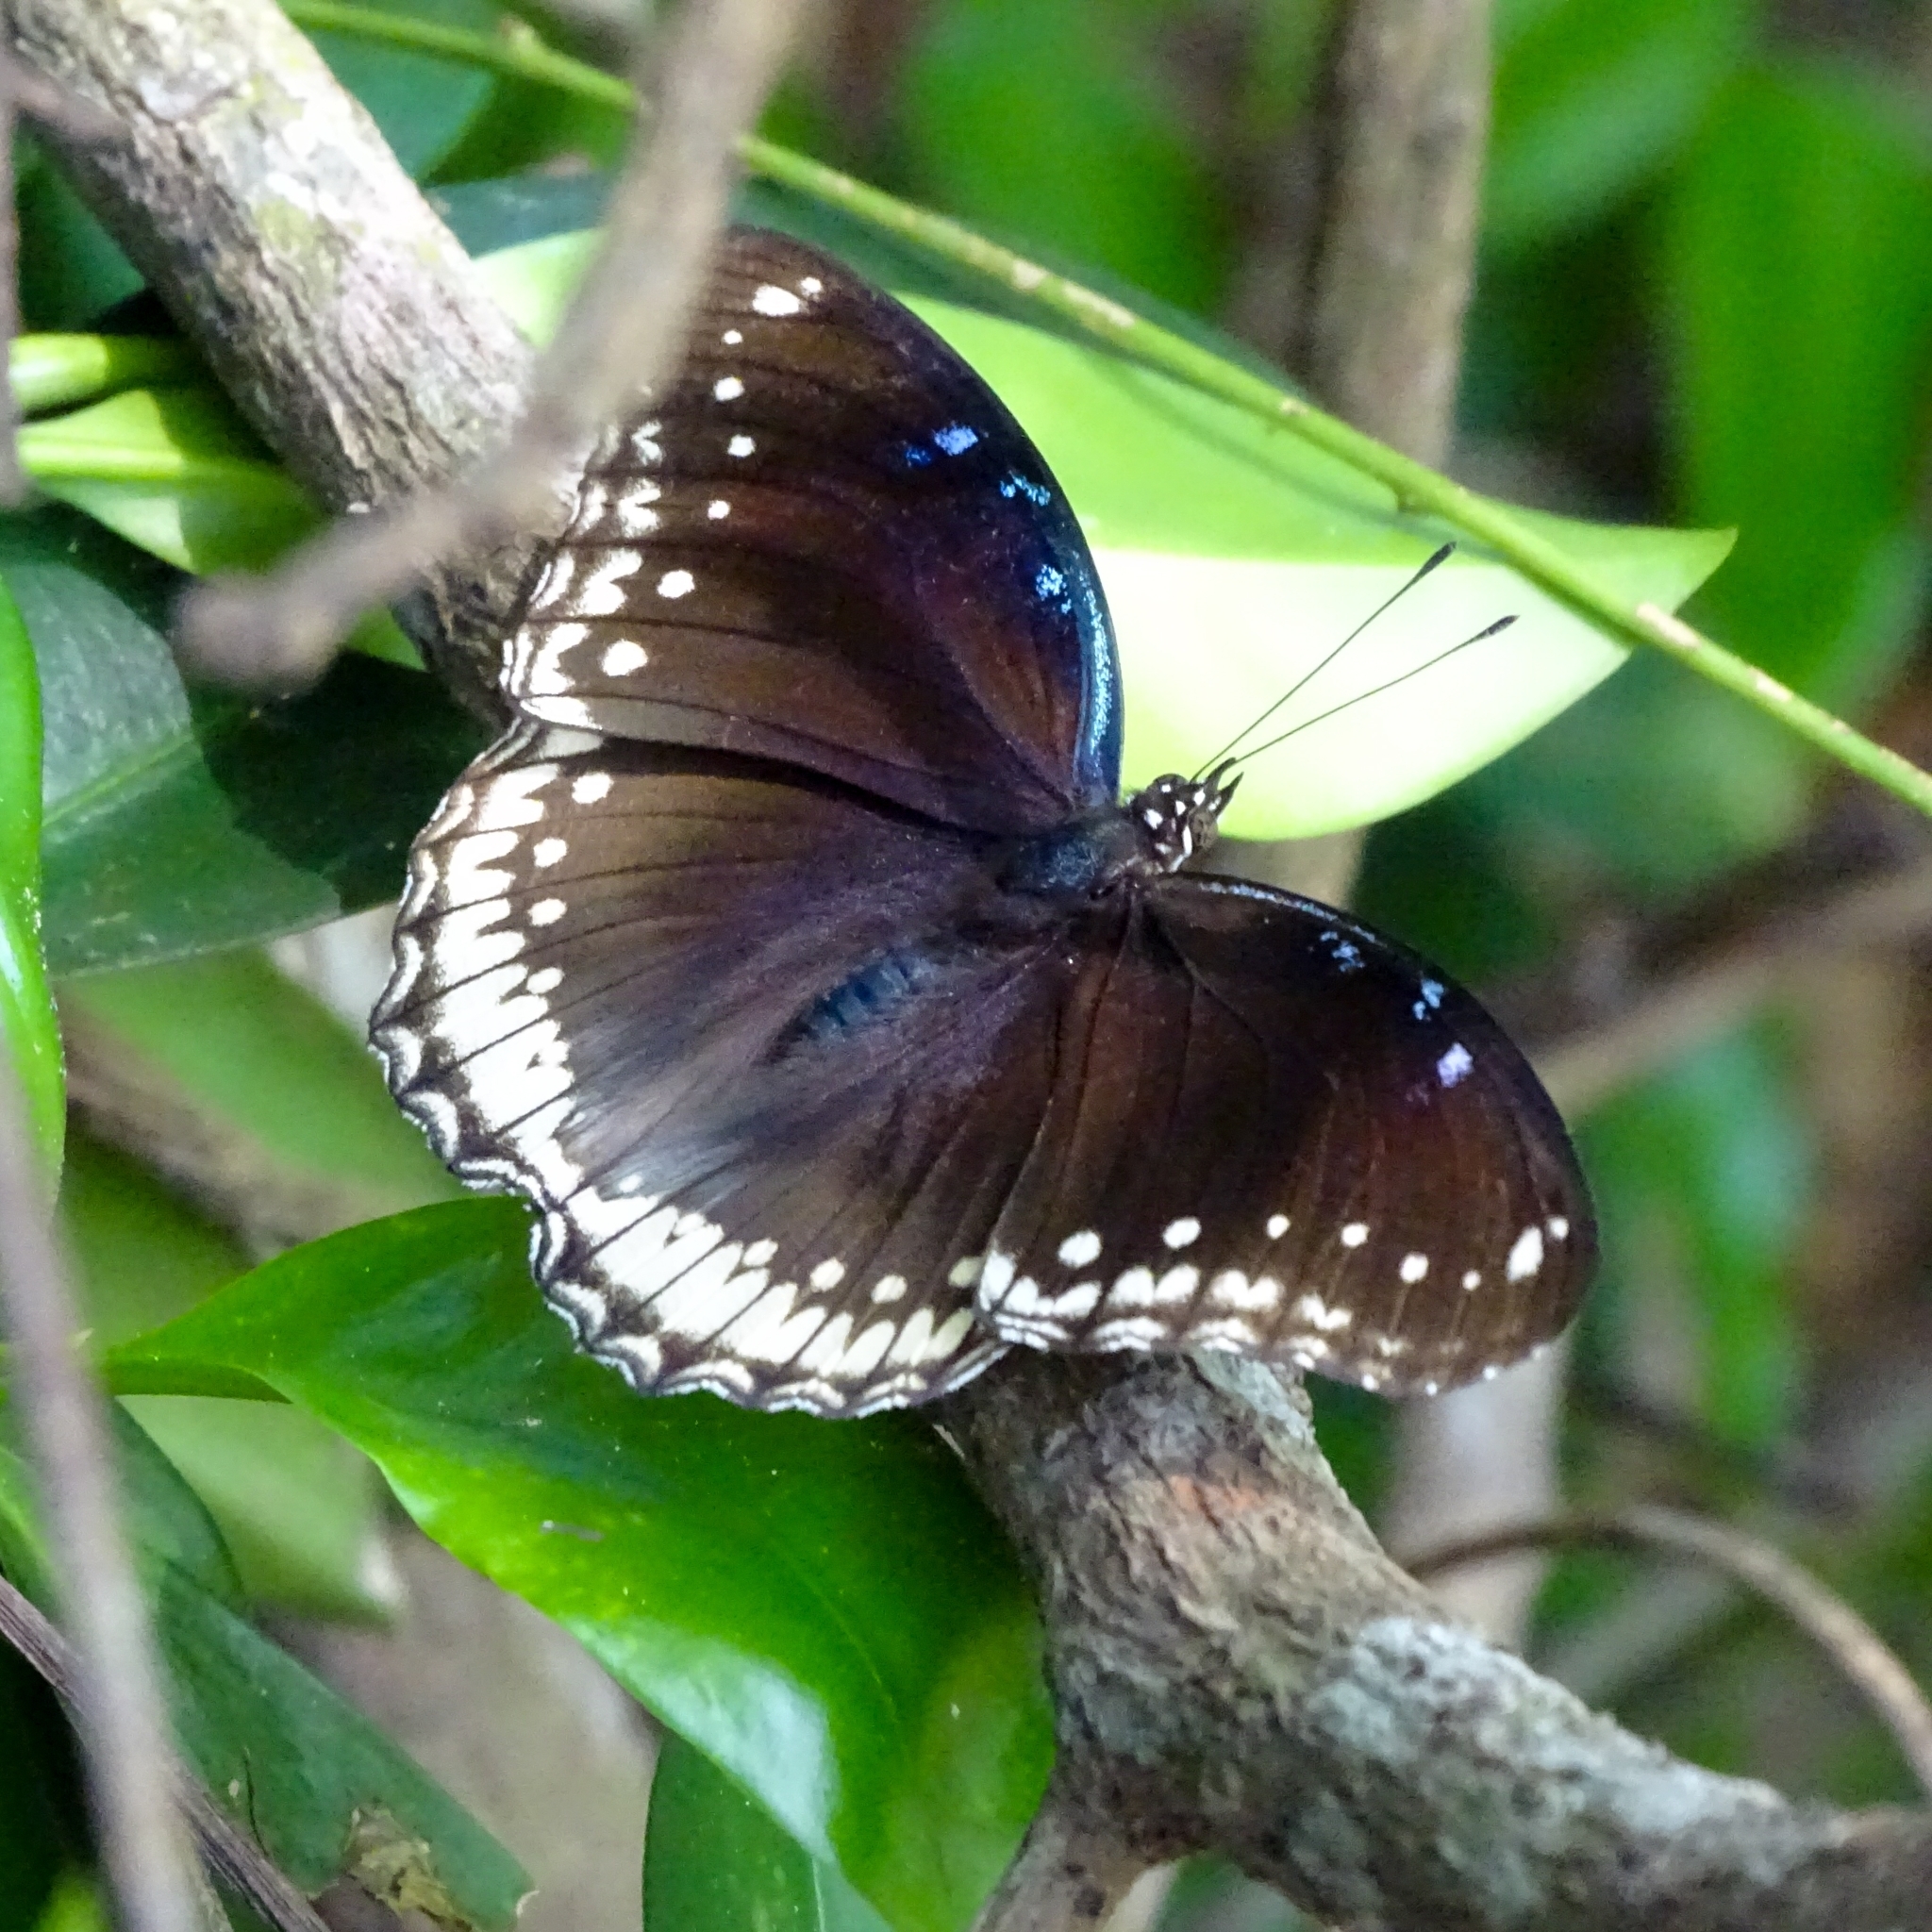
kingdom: Animalia
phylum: Arthropoda
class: Insecta
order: Lepidoptera
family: Nymphalidae
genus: Hypolimnas
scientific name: Hypolimnas bolina
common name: Great eggfly
